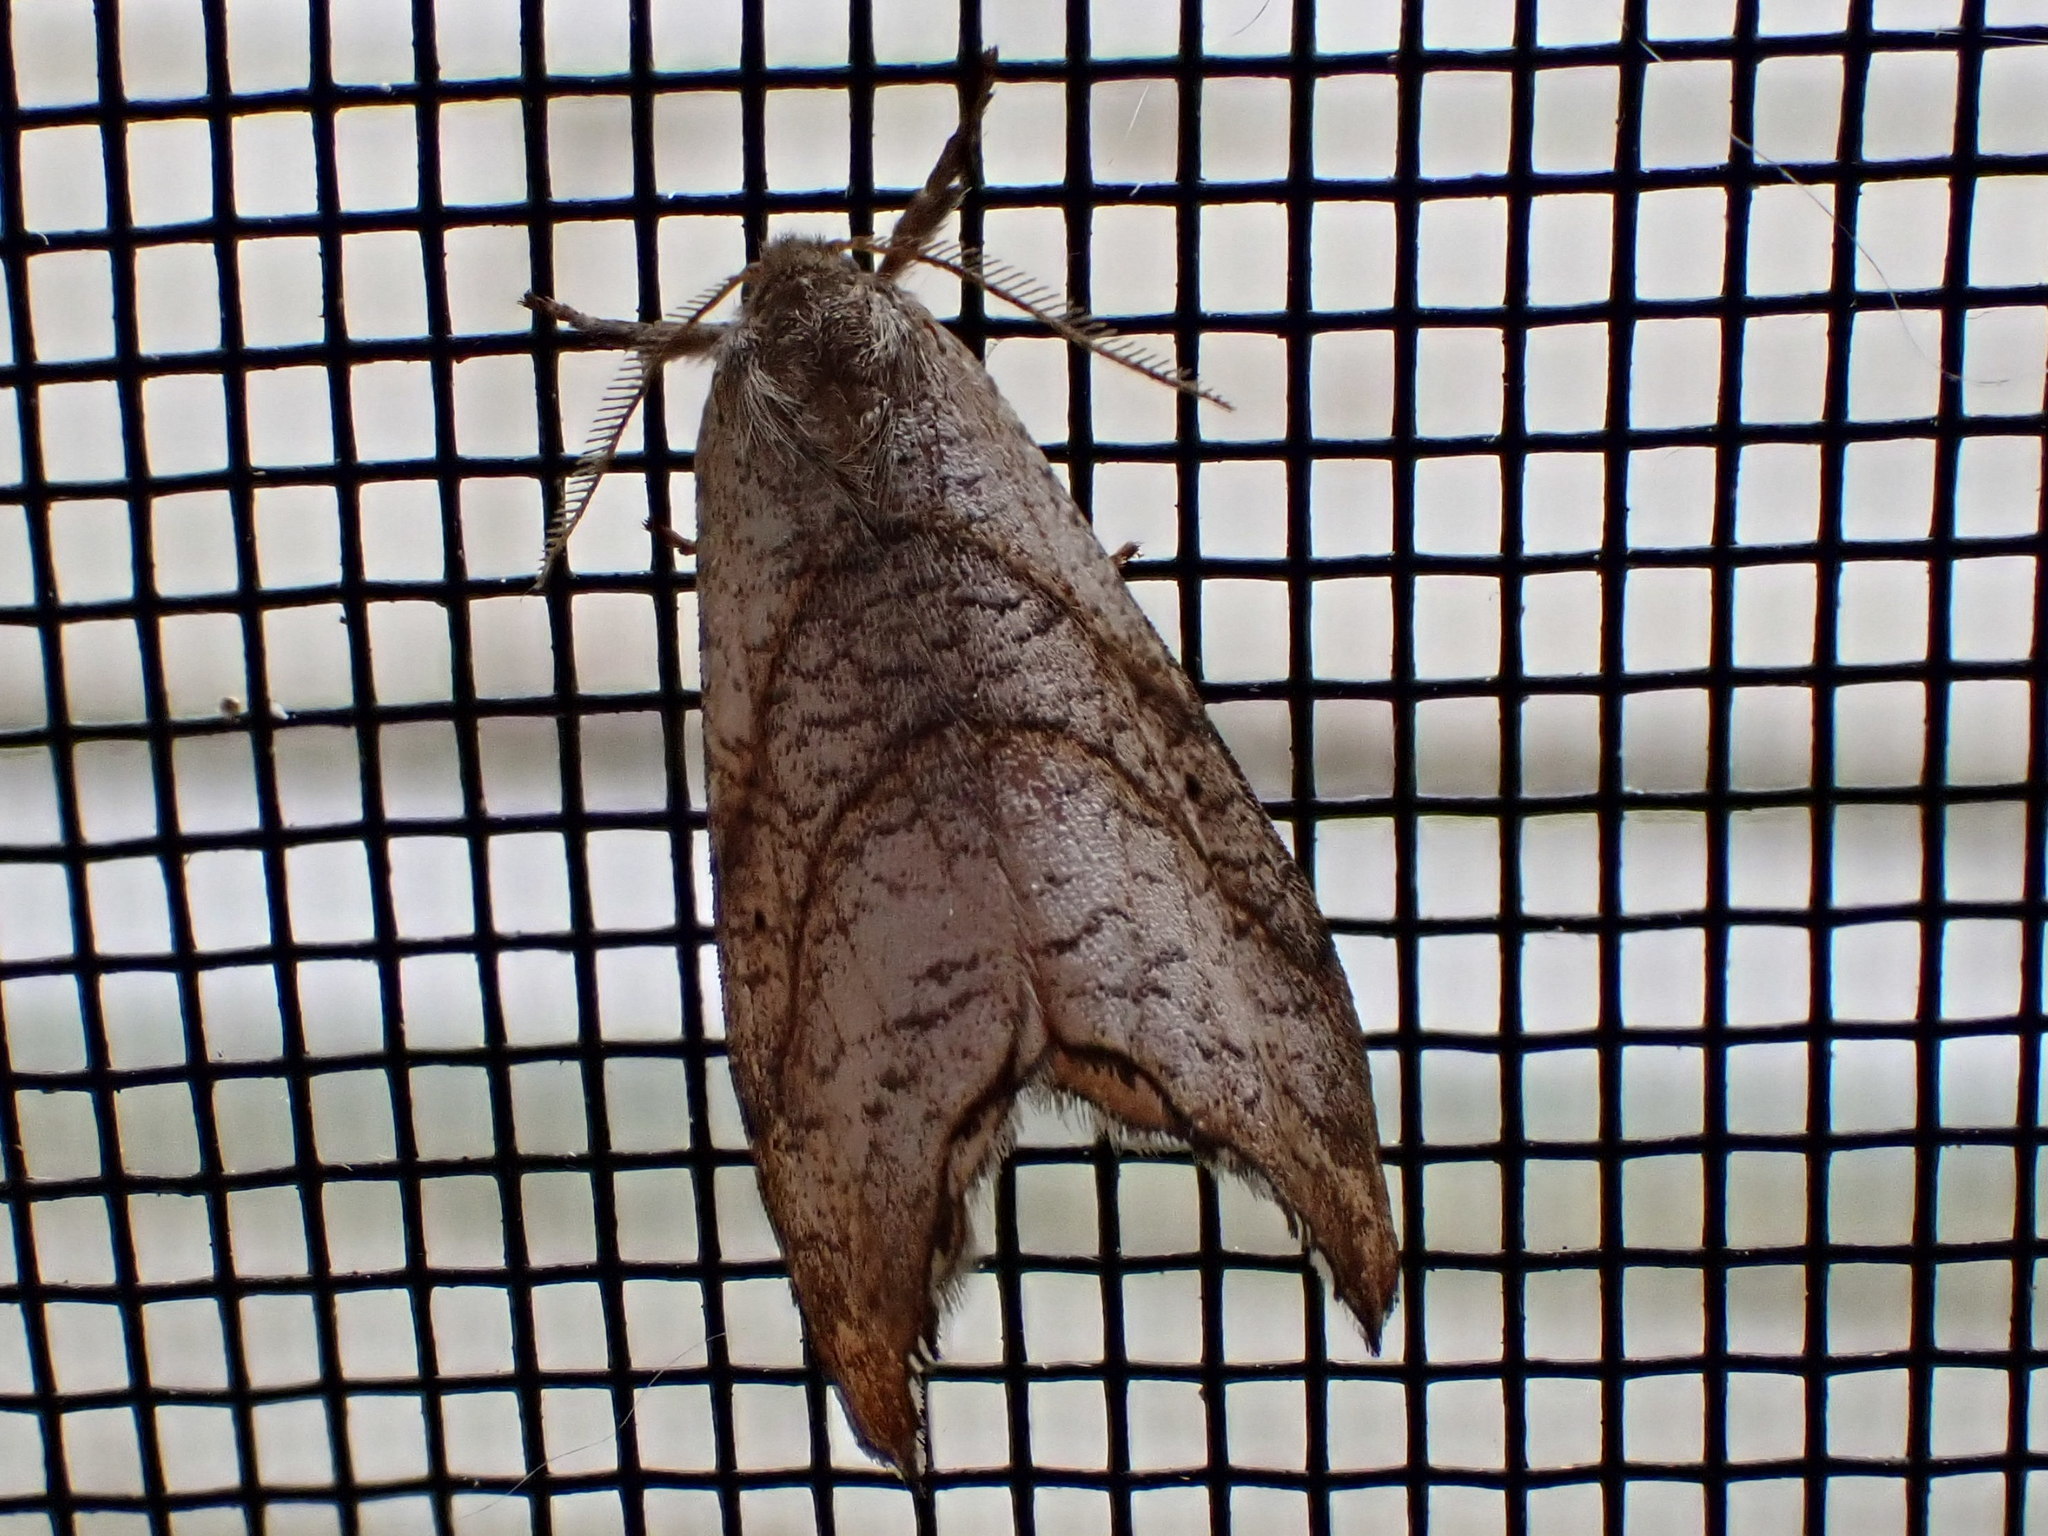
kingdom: Animalia
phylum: Arthropoda
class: Insecta
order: Lepidoptera
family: Drepanidae
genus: Falcaria
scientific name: Falcaria bilineata
